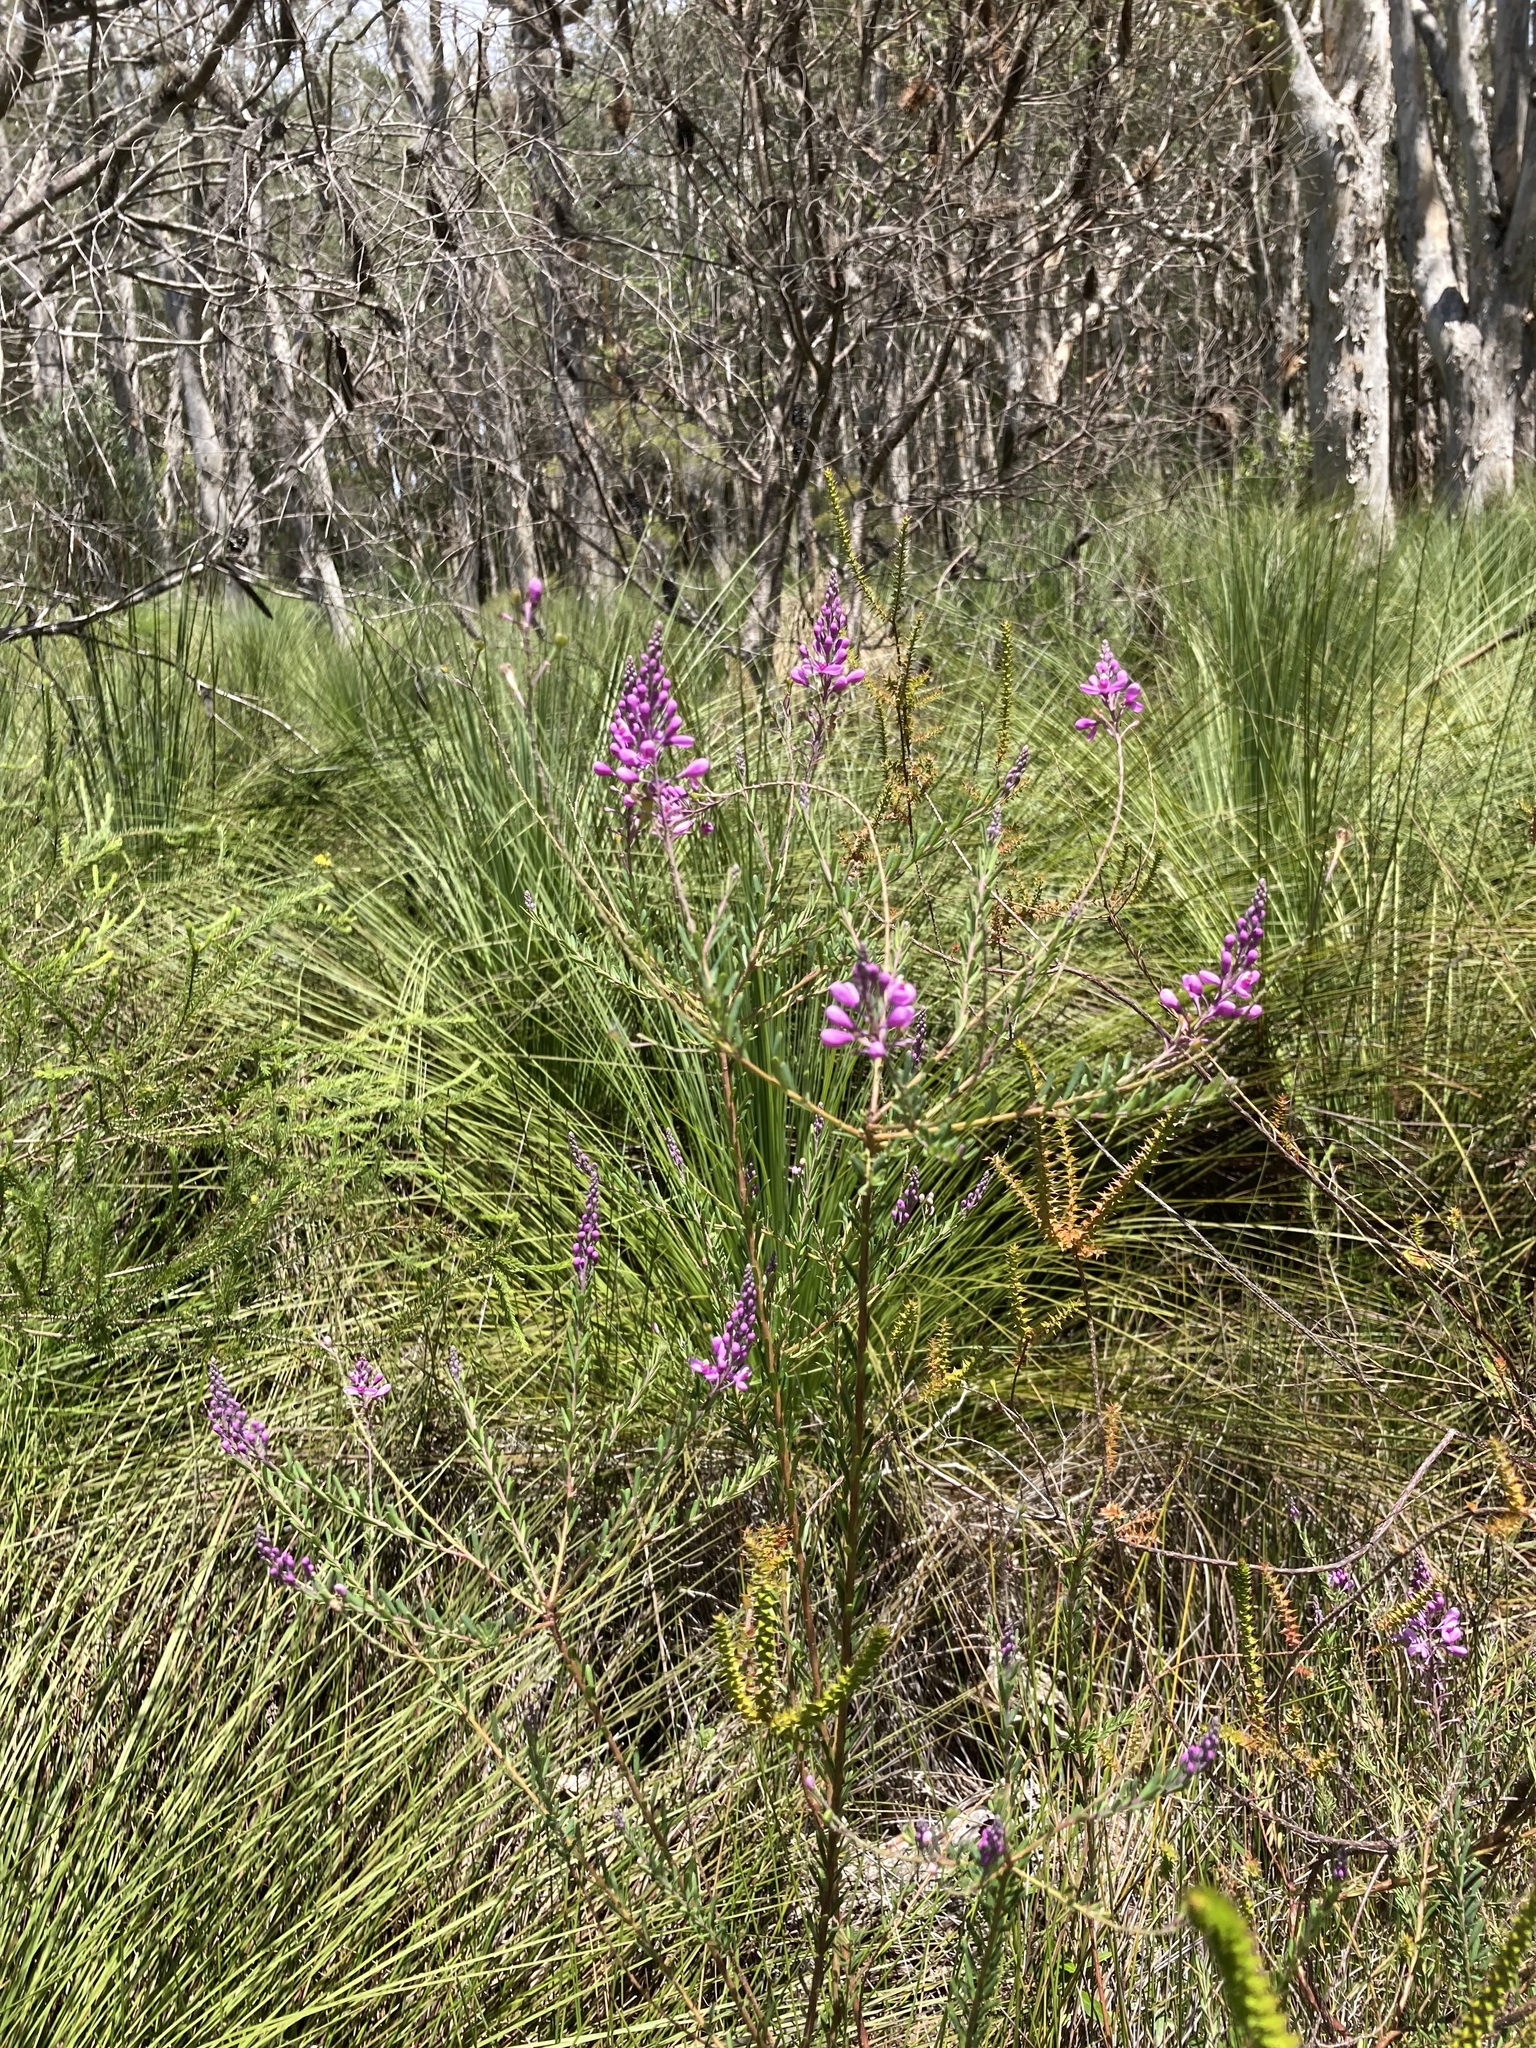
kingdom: Plantae
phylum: Tracheophyta
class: Magnoliopsida
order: Fabales
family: Polygalaceae
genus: Comesperma
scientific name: Comesperma ericinum
